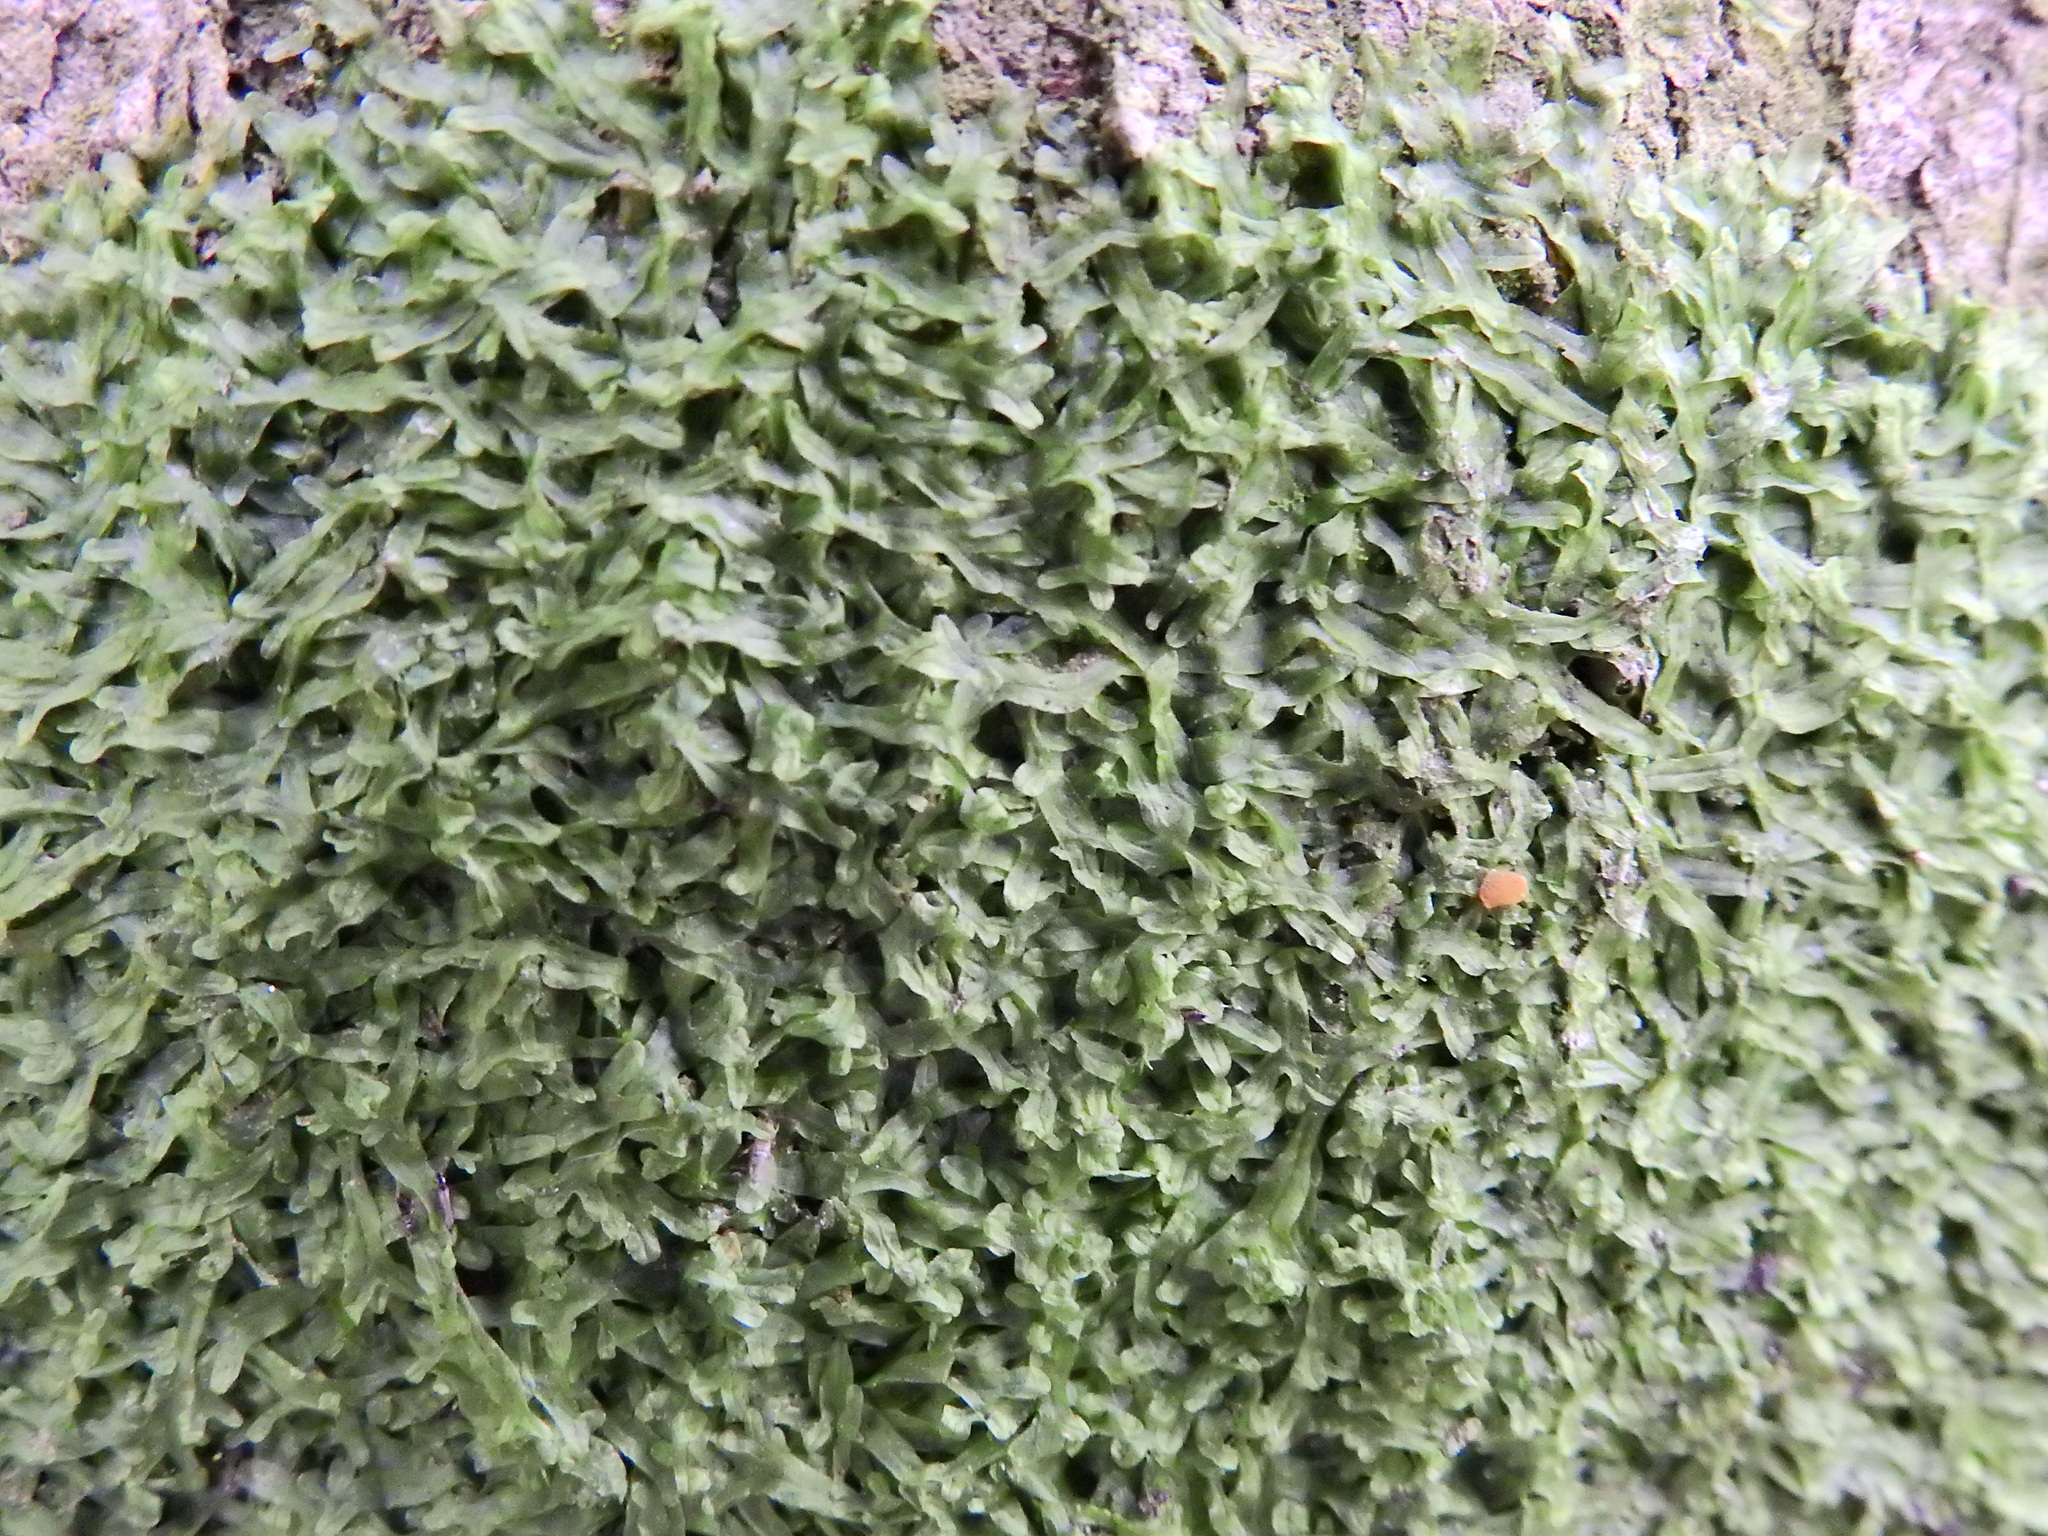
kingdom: Plantae
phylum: Marchantiophyta
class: Jungermanniopsida
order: Metzgeriales
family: Metzgeriaceae
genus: Metzgeria
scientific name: Metzgeria furcata
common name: Forked veilwort
